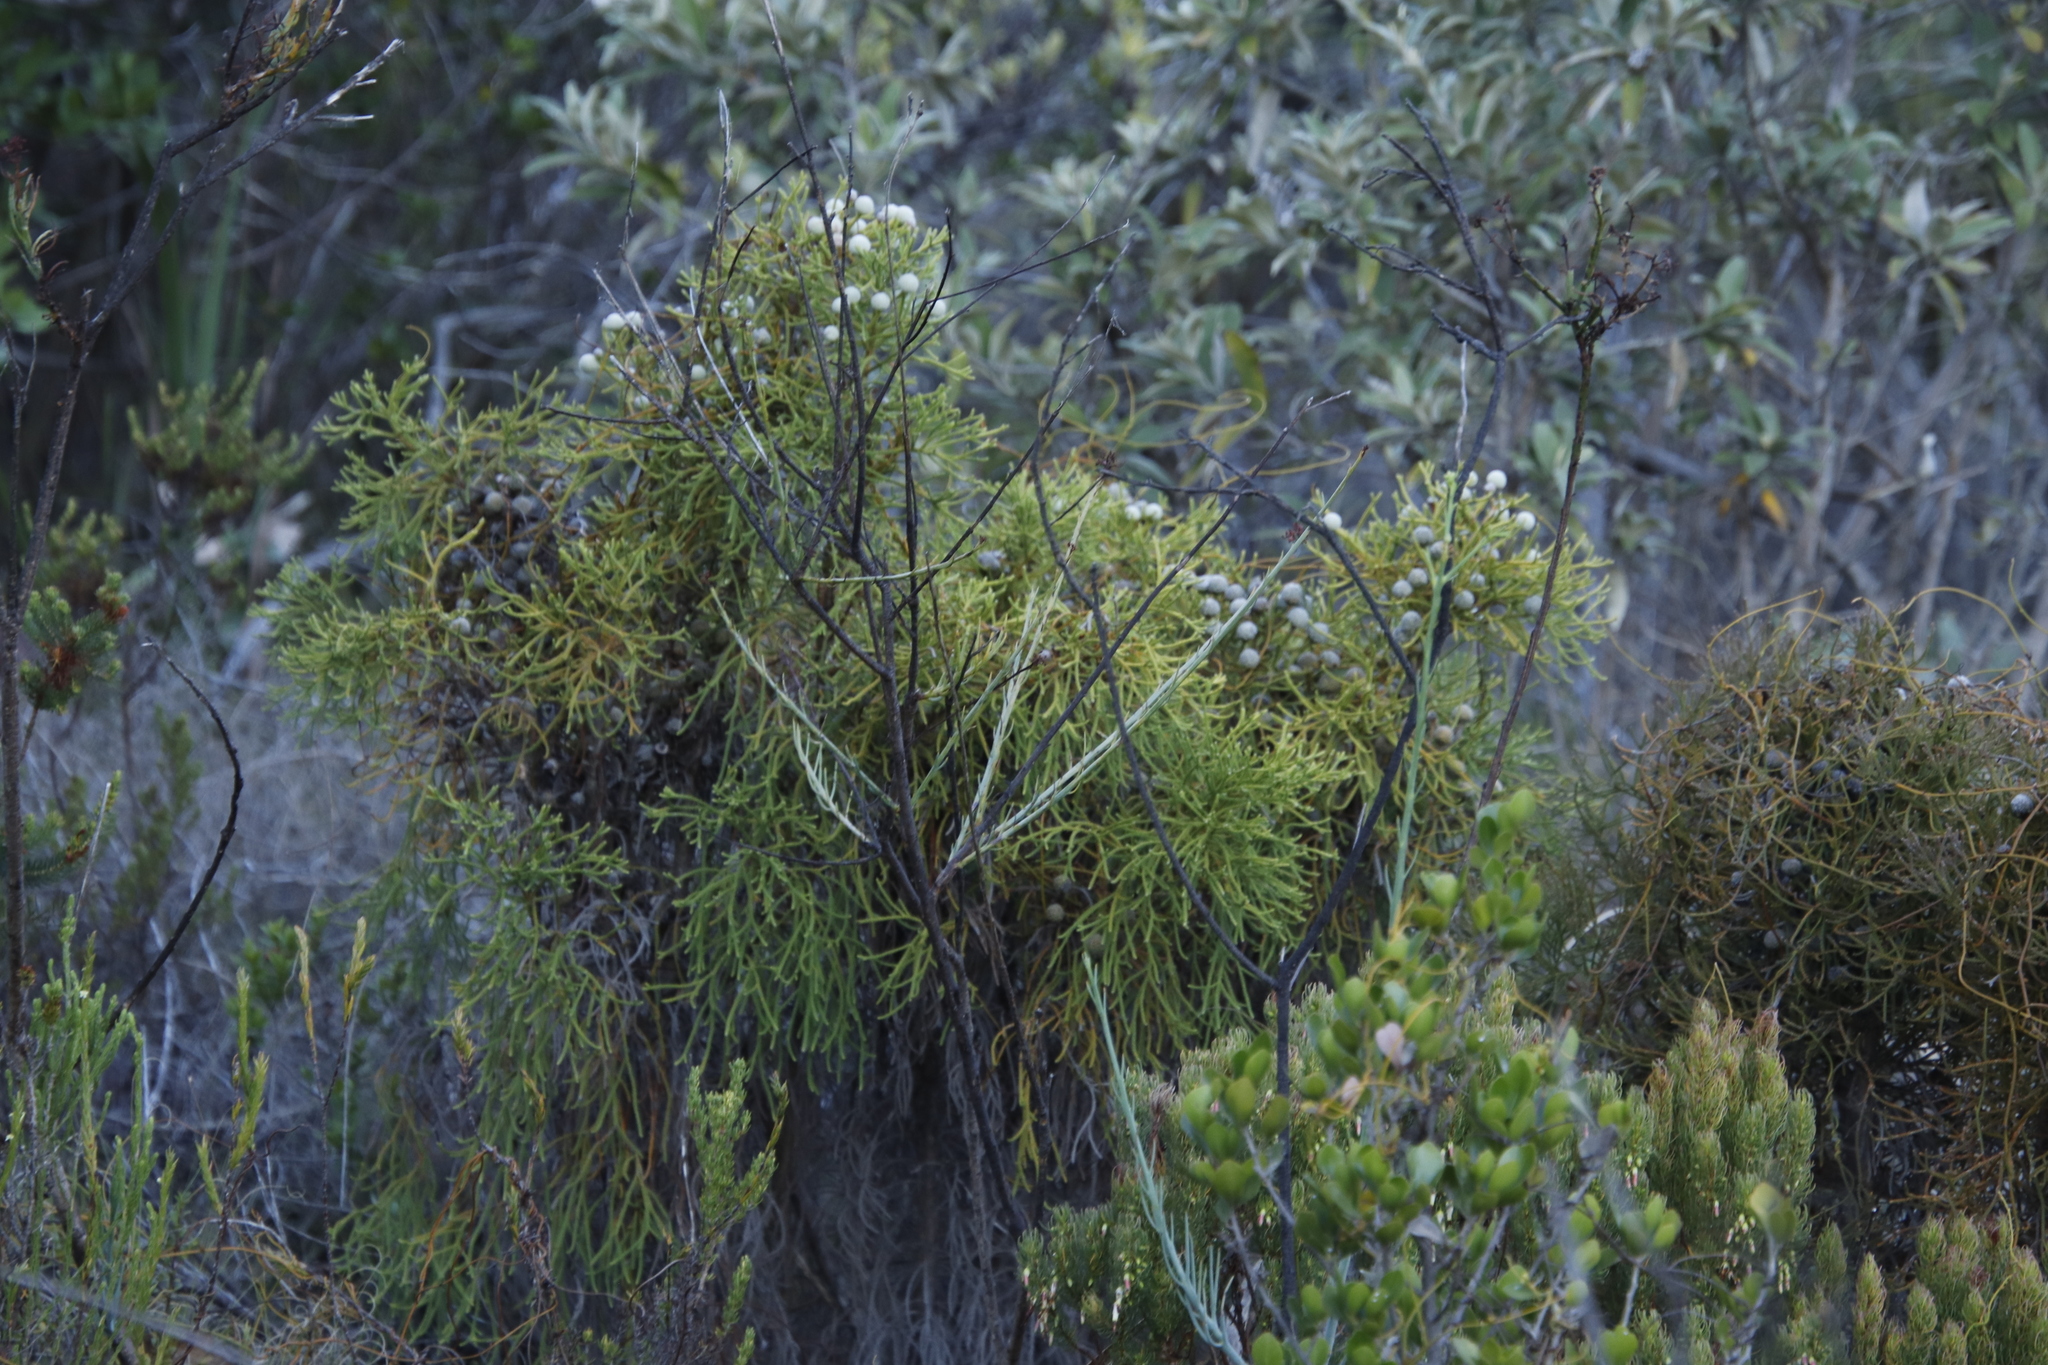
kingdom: Plantae
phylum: Tracheophyta
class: Magnoliopsida
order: Bruniales
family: Bruniaceae
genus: Berzelia
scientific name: Berzelia lanuginosa
